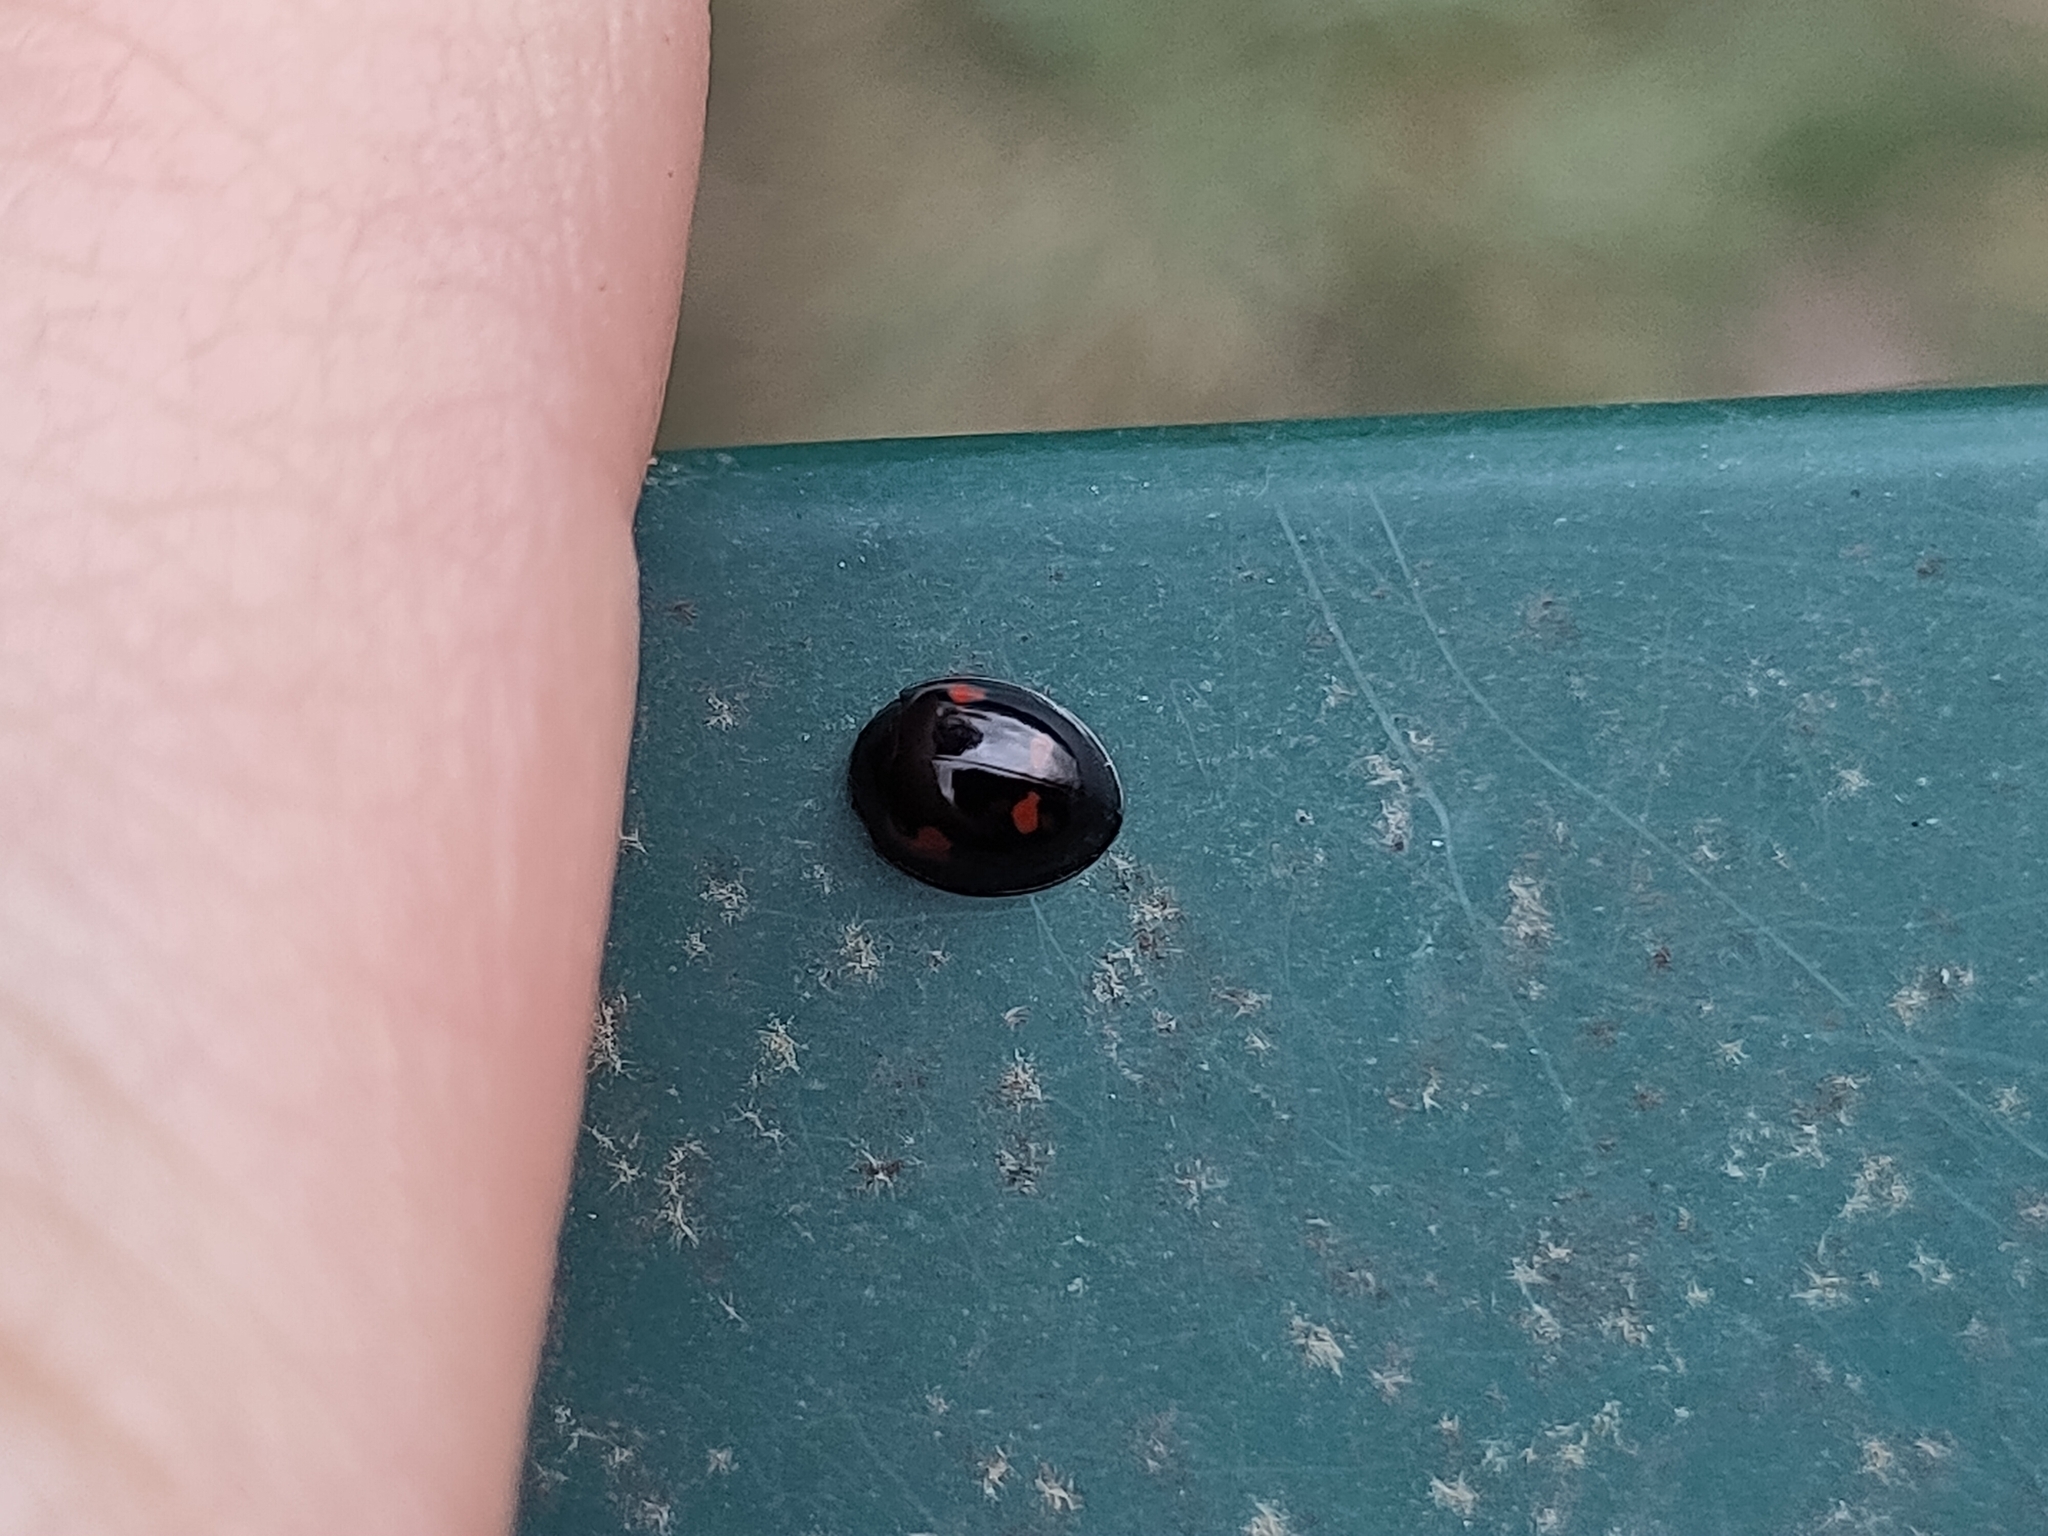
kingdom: Animalia
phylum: Arthropoda
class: Insecta
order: Coleoptera
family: Coccinellidae
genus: Brumus
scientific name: Brumus quadripustulatus
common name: Ladybird beetle
